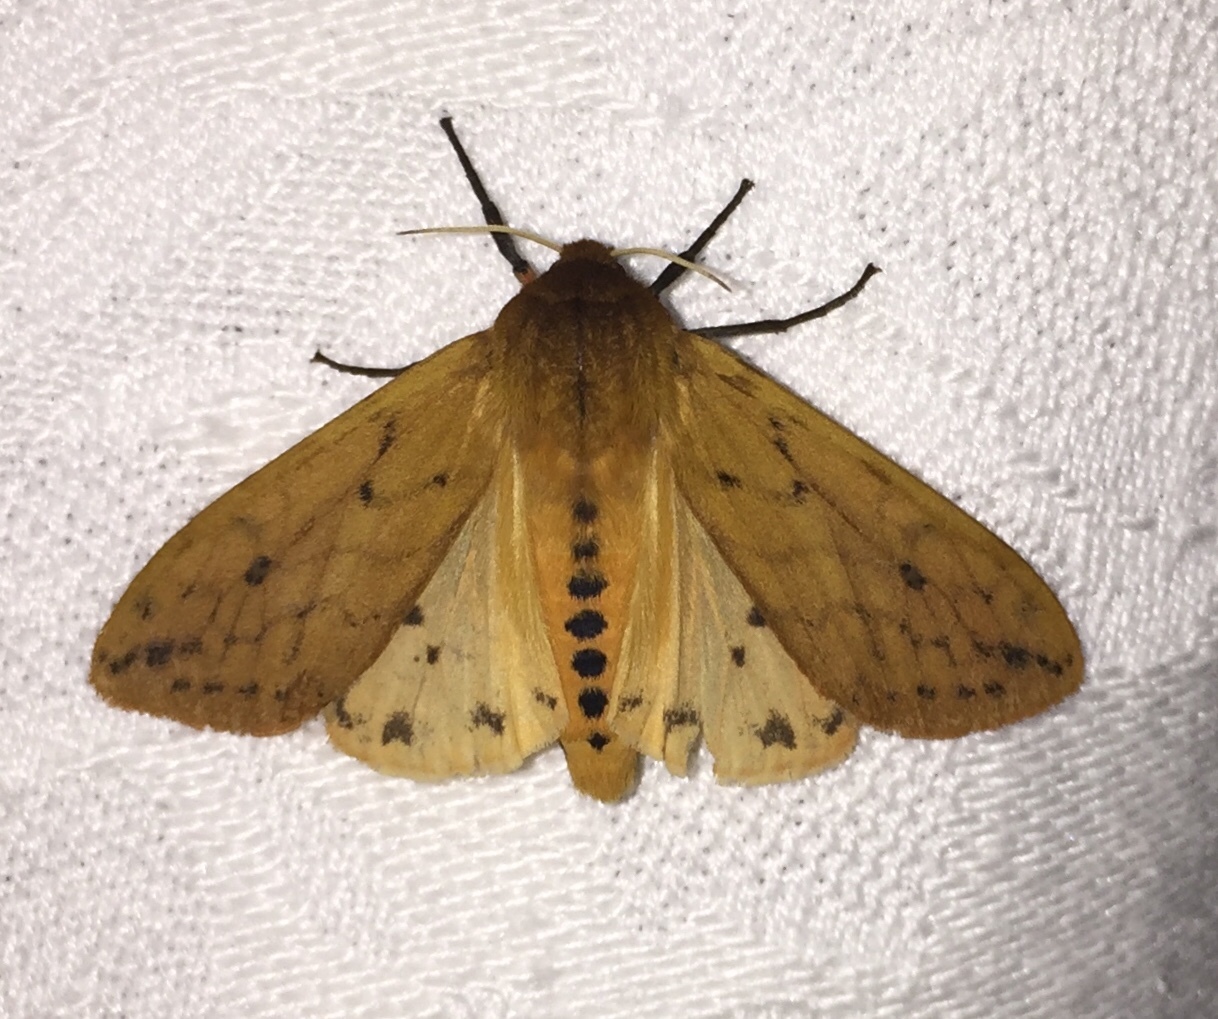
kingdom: Animalia
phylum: Arthropoda
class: Insecta
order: Lepidoptera
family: Erebidae
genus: Pyrrharctia
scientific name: Pyrrharctia isabella
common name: Isabella tiger moth
